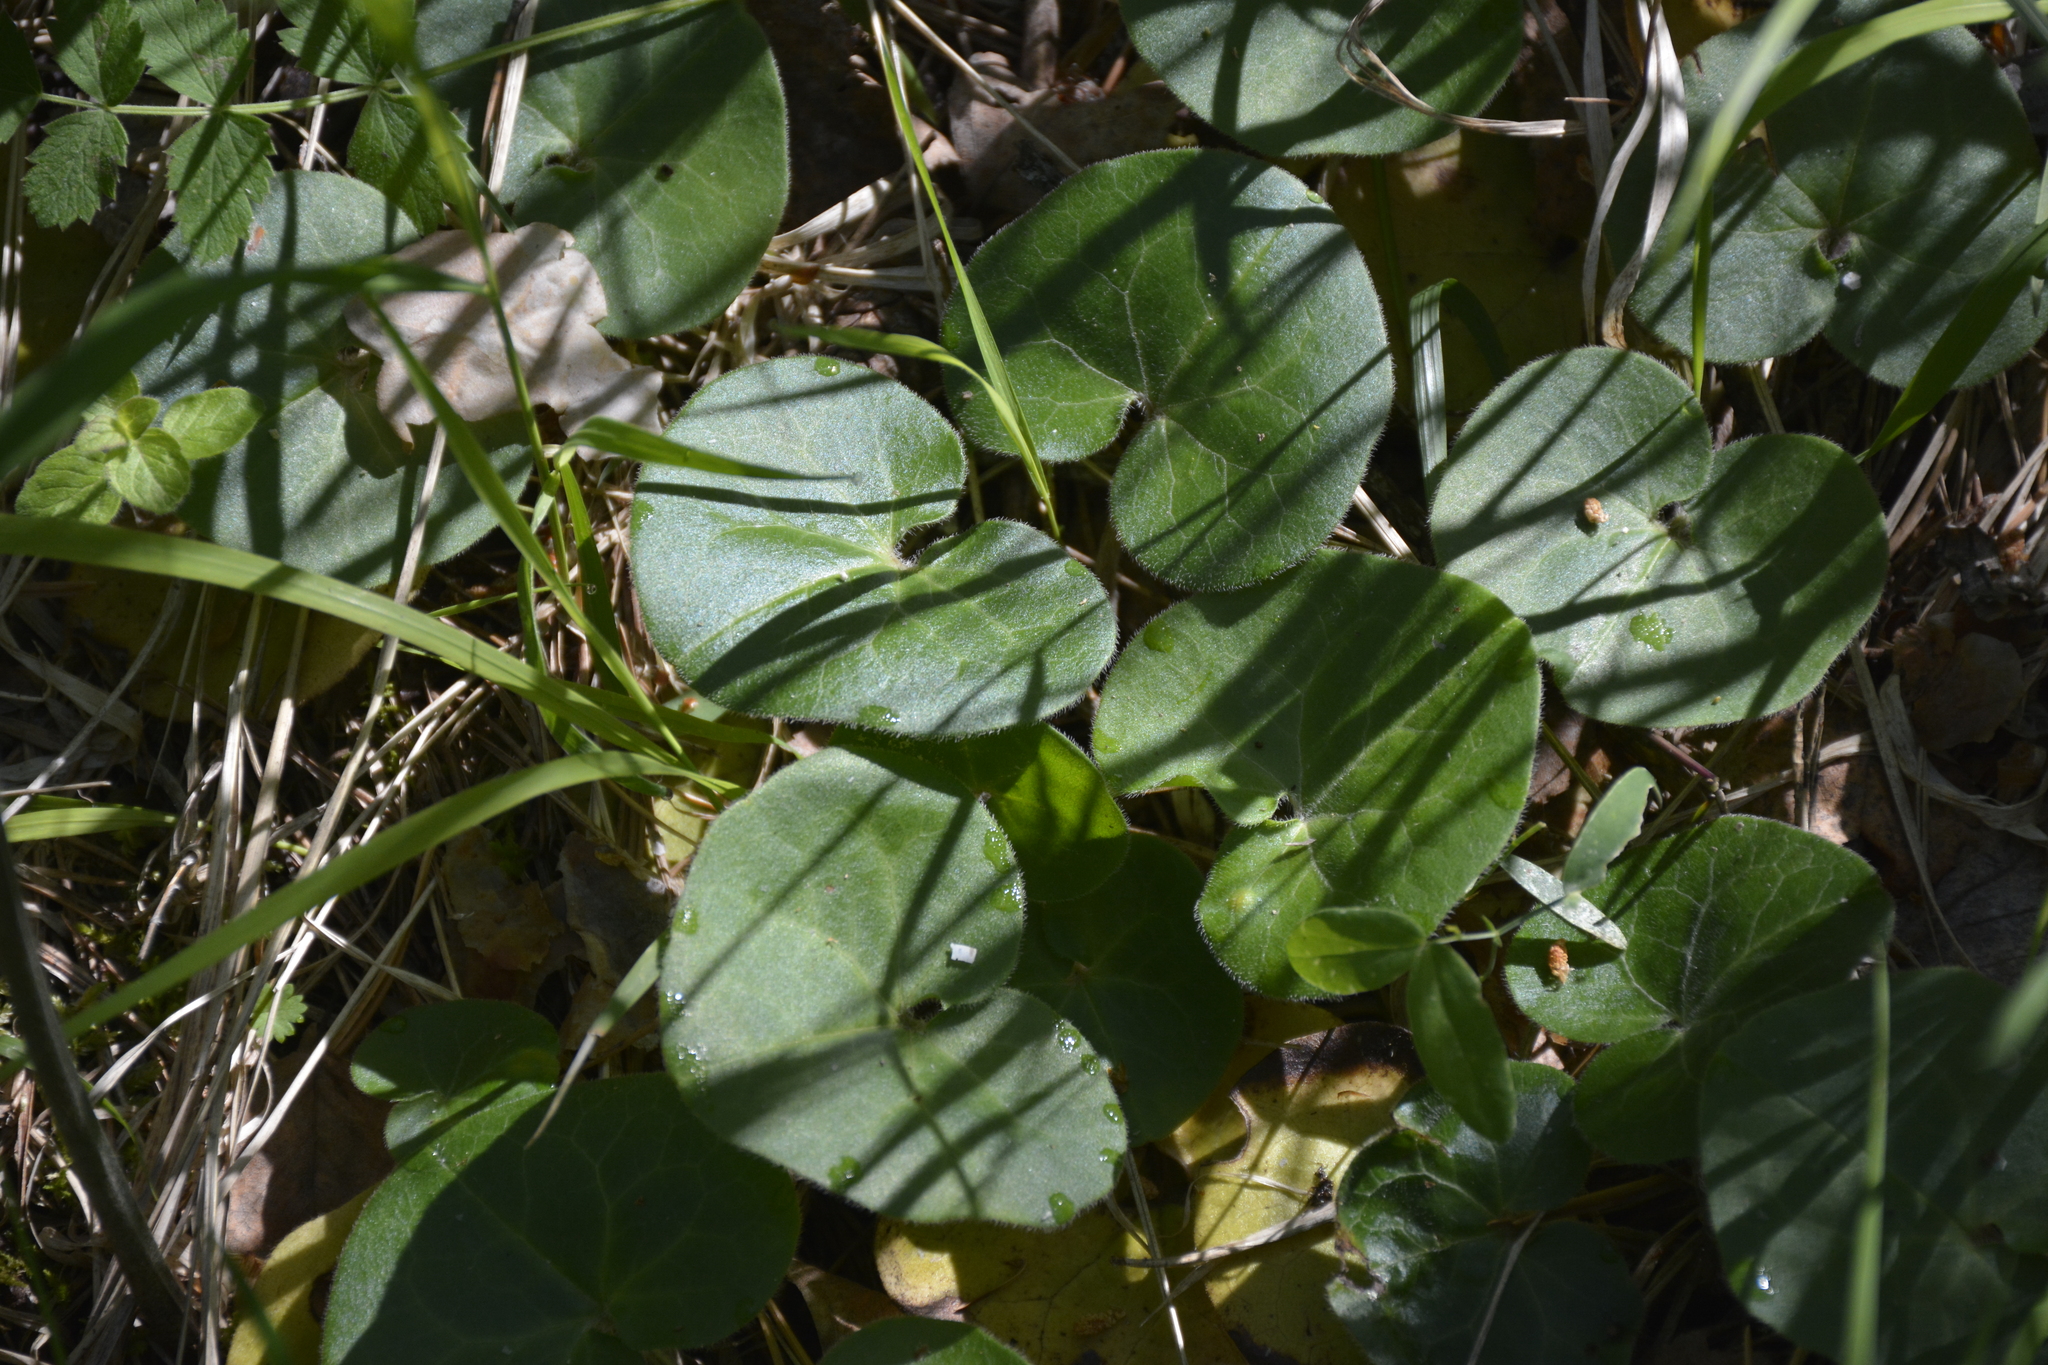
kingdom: Plantae
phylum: Tracheophyta
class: Magnoliopsida
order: Piperales
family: Aristolochiaceae
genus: Asarum
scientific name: Asarum europaeum
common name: Asarabacca
